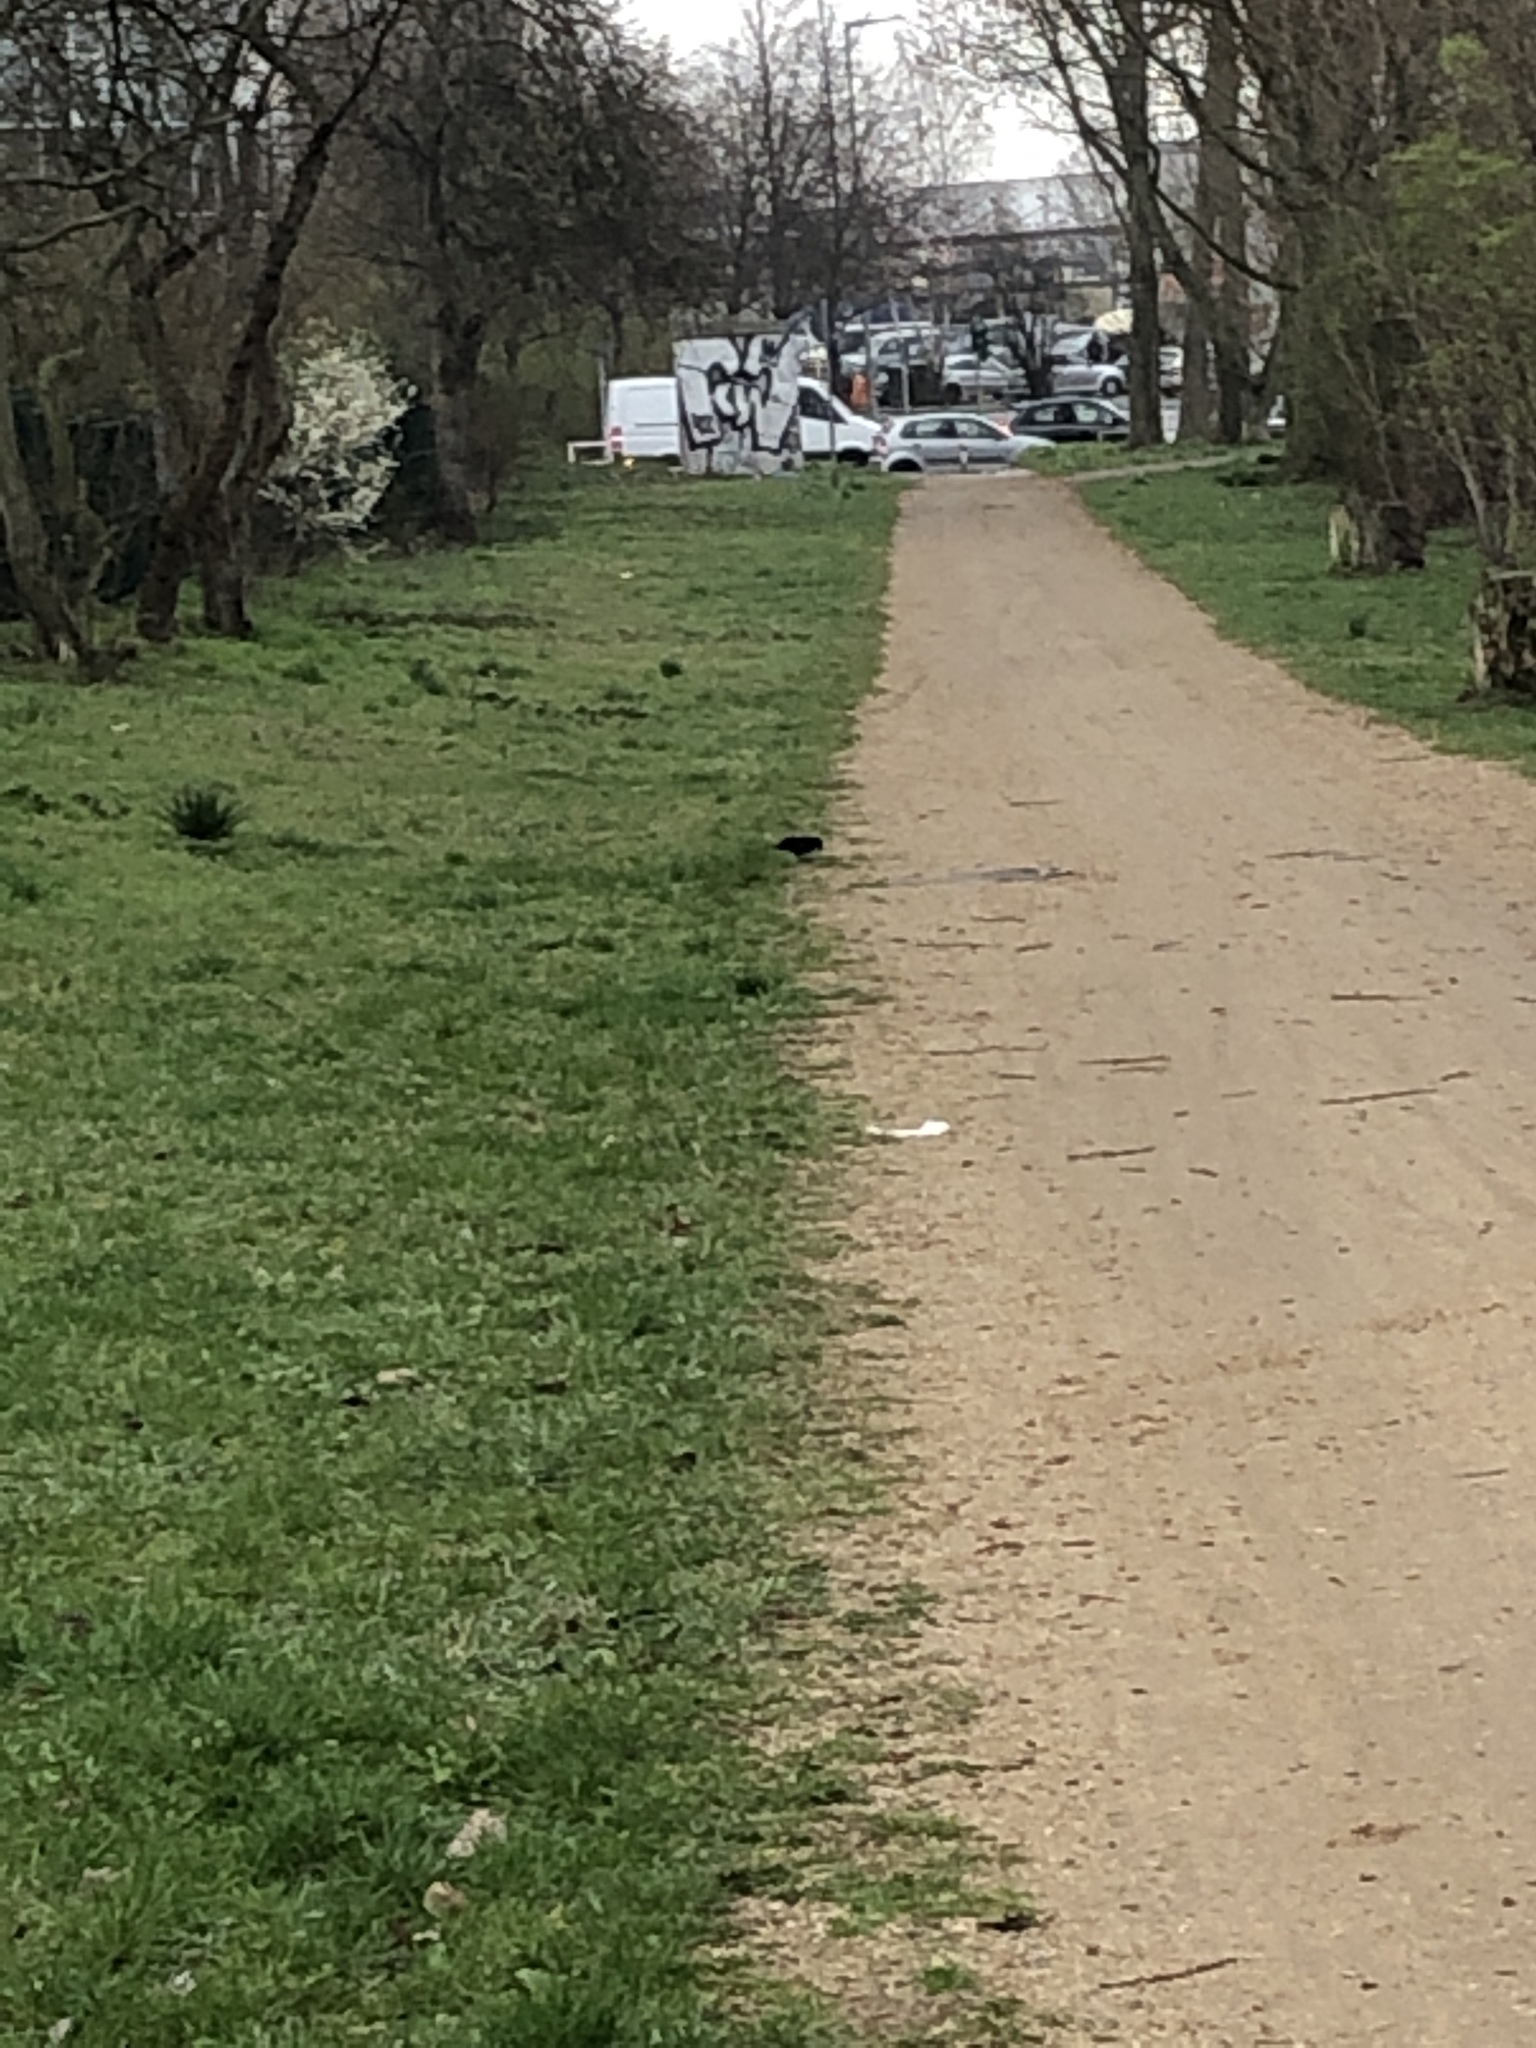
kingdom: Animalia
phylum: Chordata
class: Aves
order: Passeriformes
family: Turdidae
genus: Turdus
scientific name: Turdus merula
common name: Common blackbird
